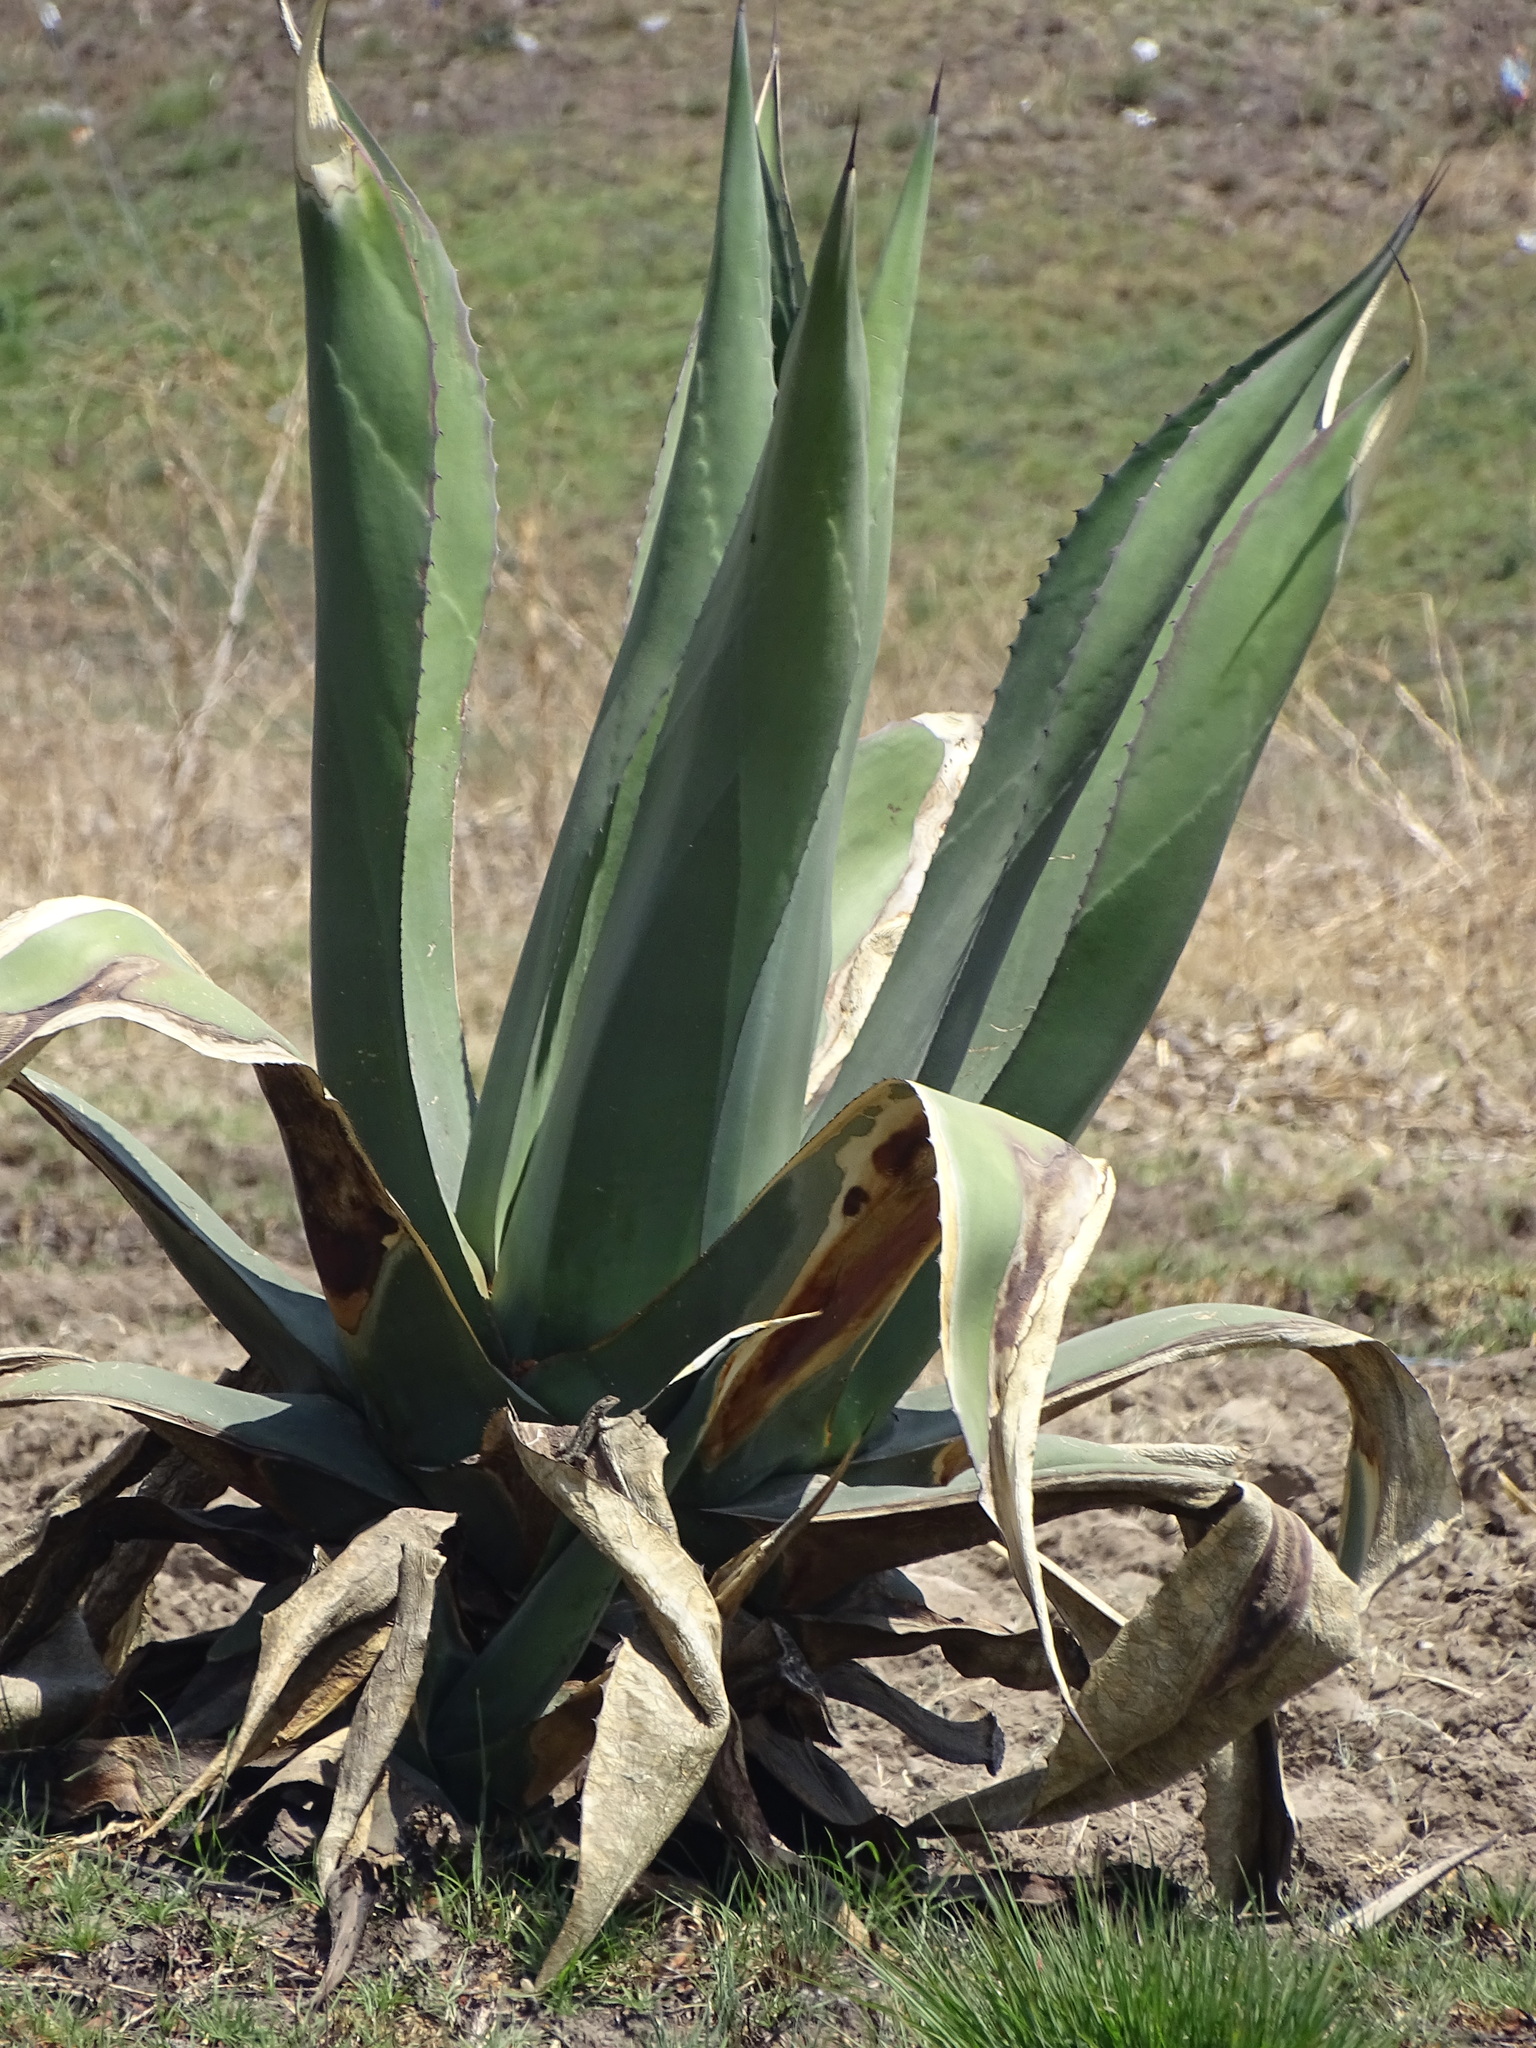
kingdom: Plantae
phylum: Tracheophyta
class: Liliopsida
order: Asparagales
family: Asparagaceae
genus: Agave
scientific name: Agave salmiana
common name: Pulque agave
